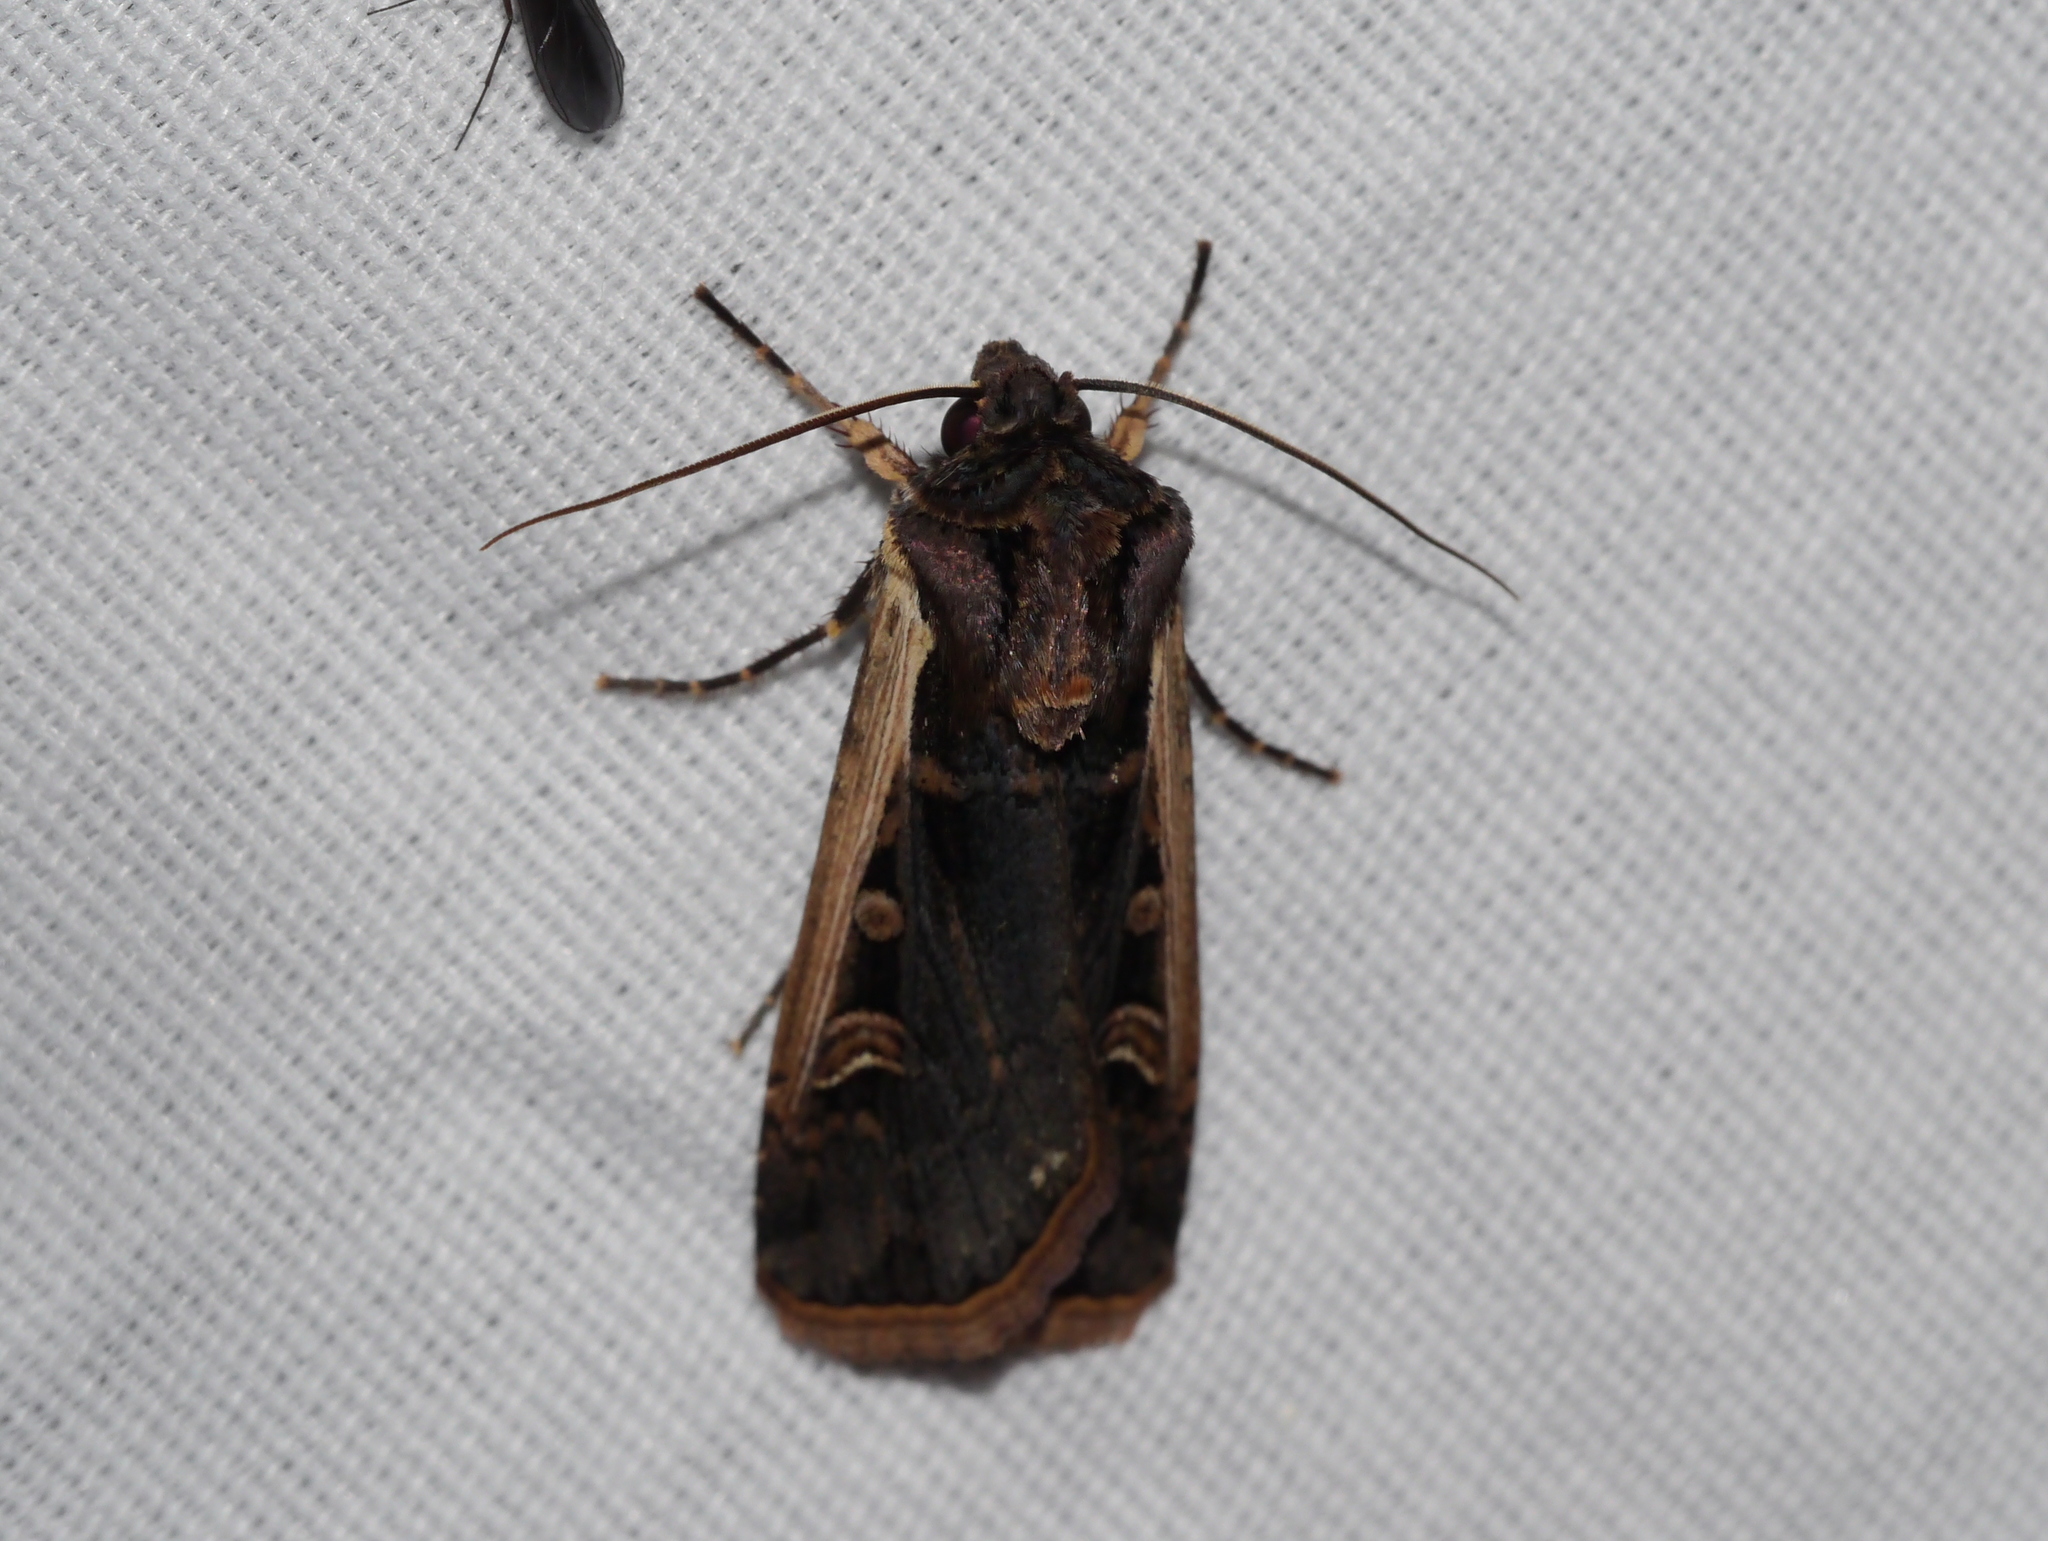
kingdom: Animalia
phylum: Arthropoda
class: Insecta
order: Lepidoptera
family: Noctuidae
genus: Striacosta
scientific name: Striacosta albicosta
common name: Western bean cutworm moth
